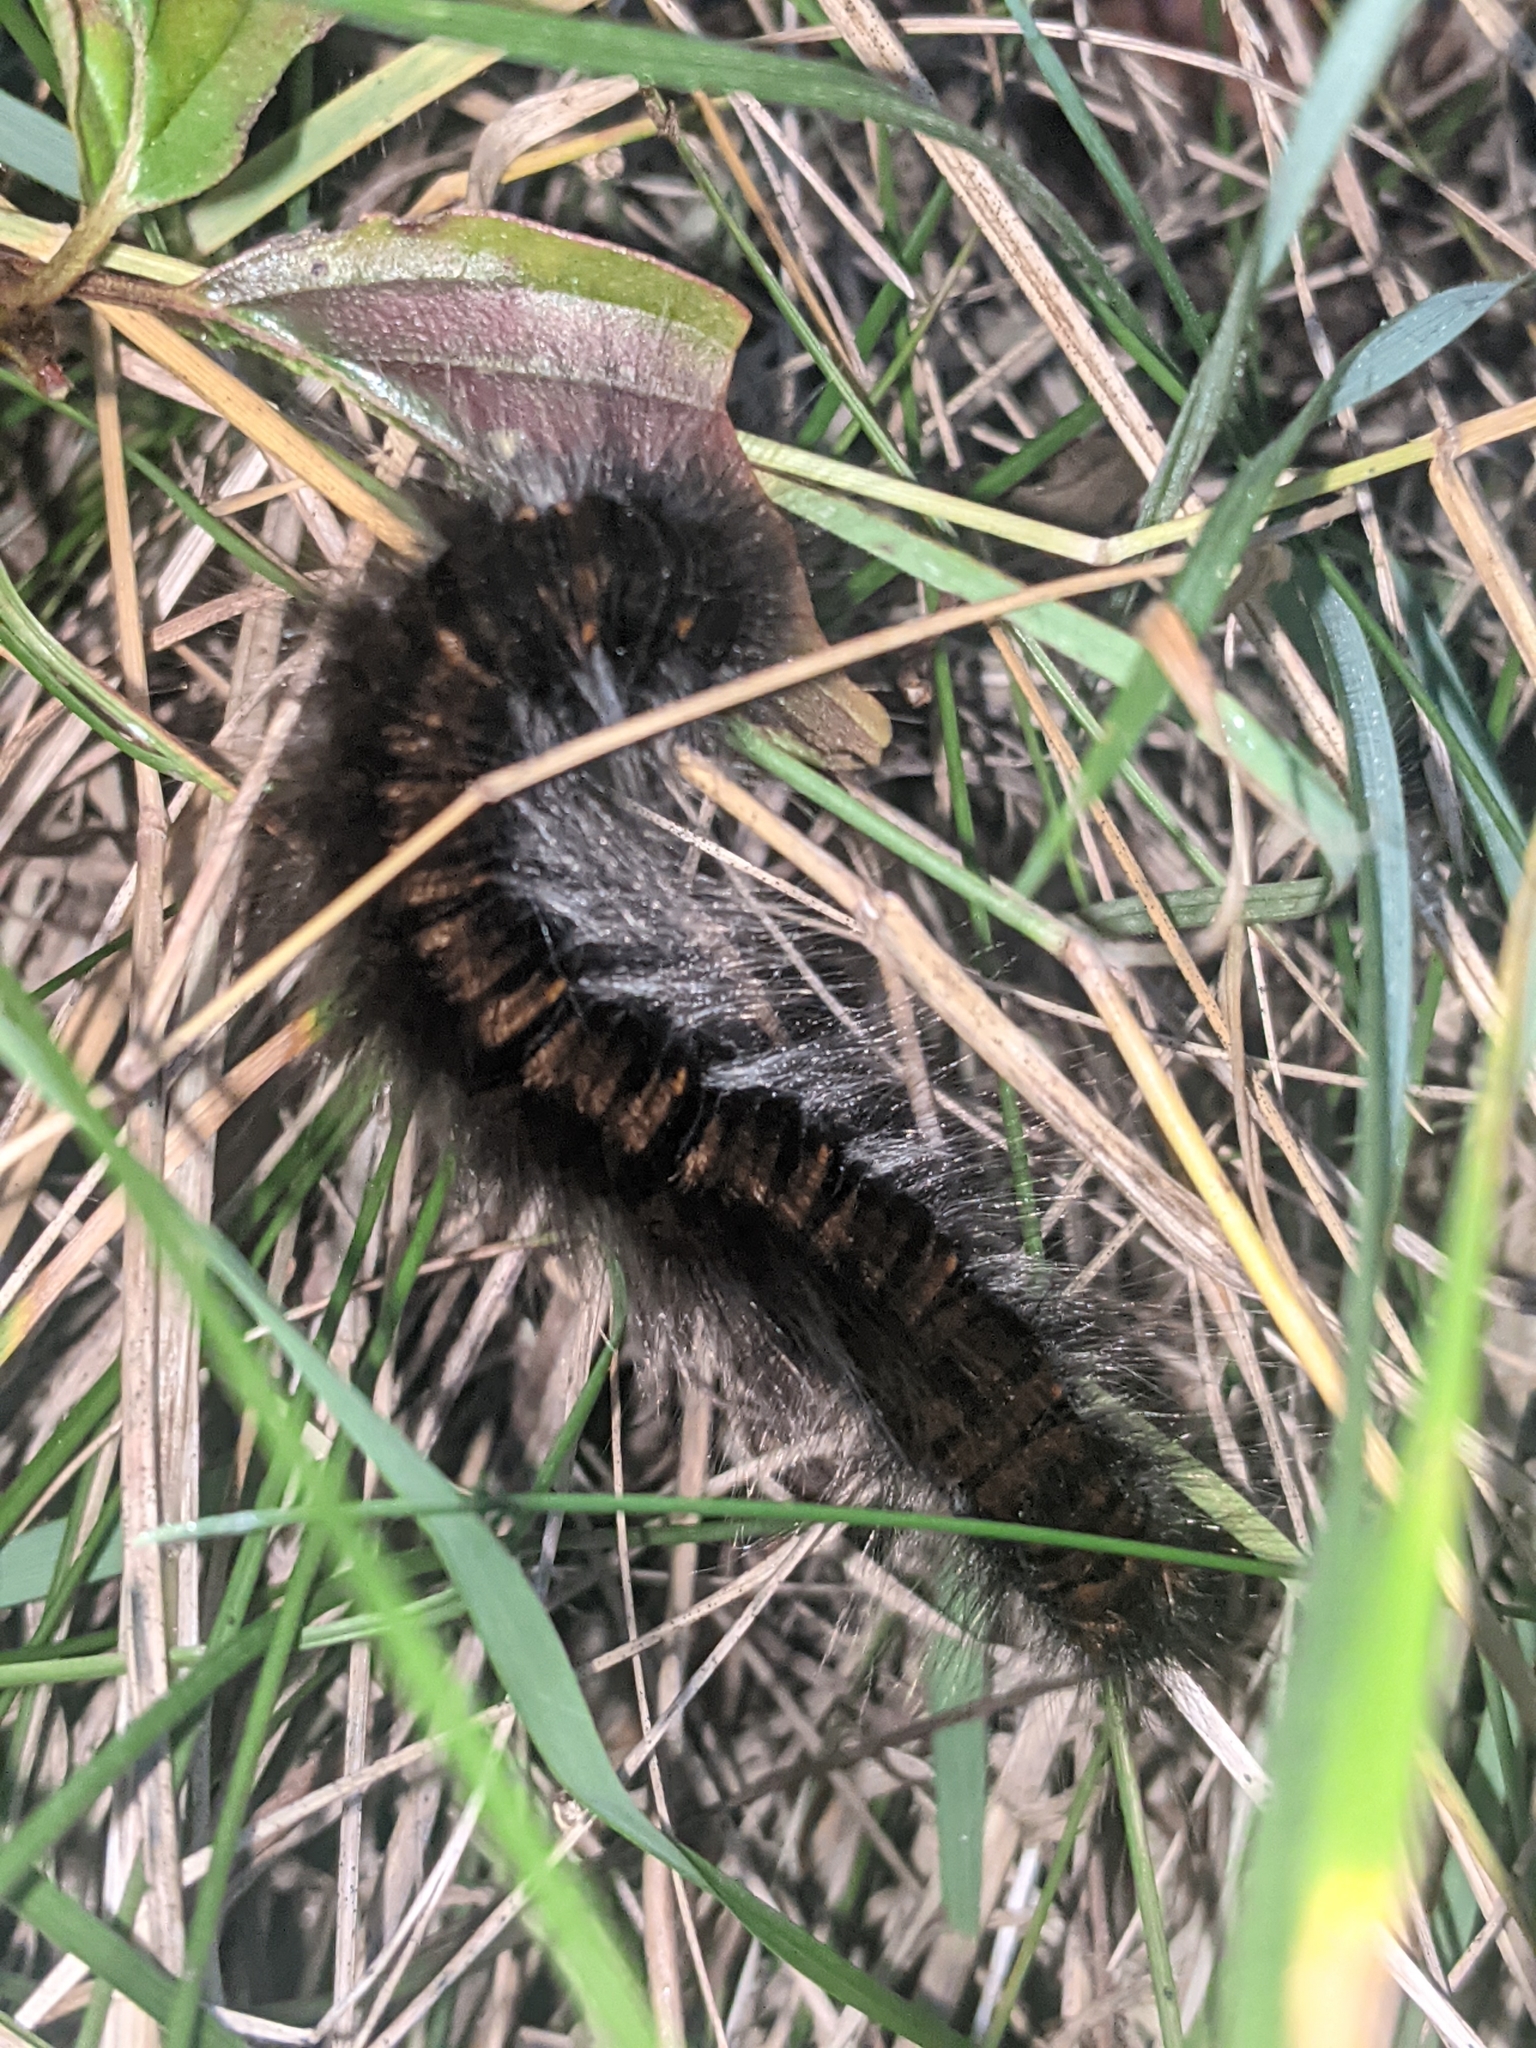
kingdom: Animalia
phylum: Arthropoda
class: Insecta
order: Lepidoptera
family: Lasiocampidae
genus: Macrothylacia
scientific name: Macrothylacia rubi
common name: Fox moth
